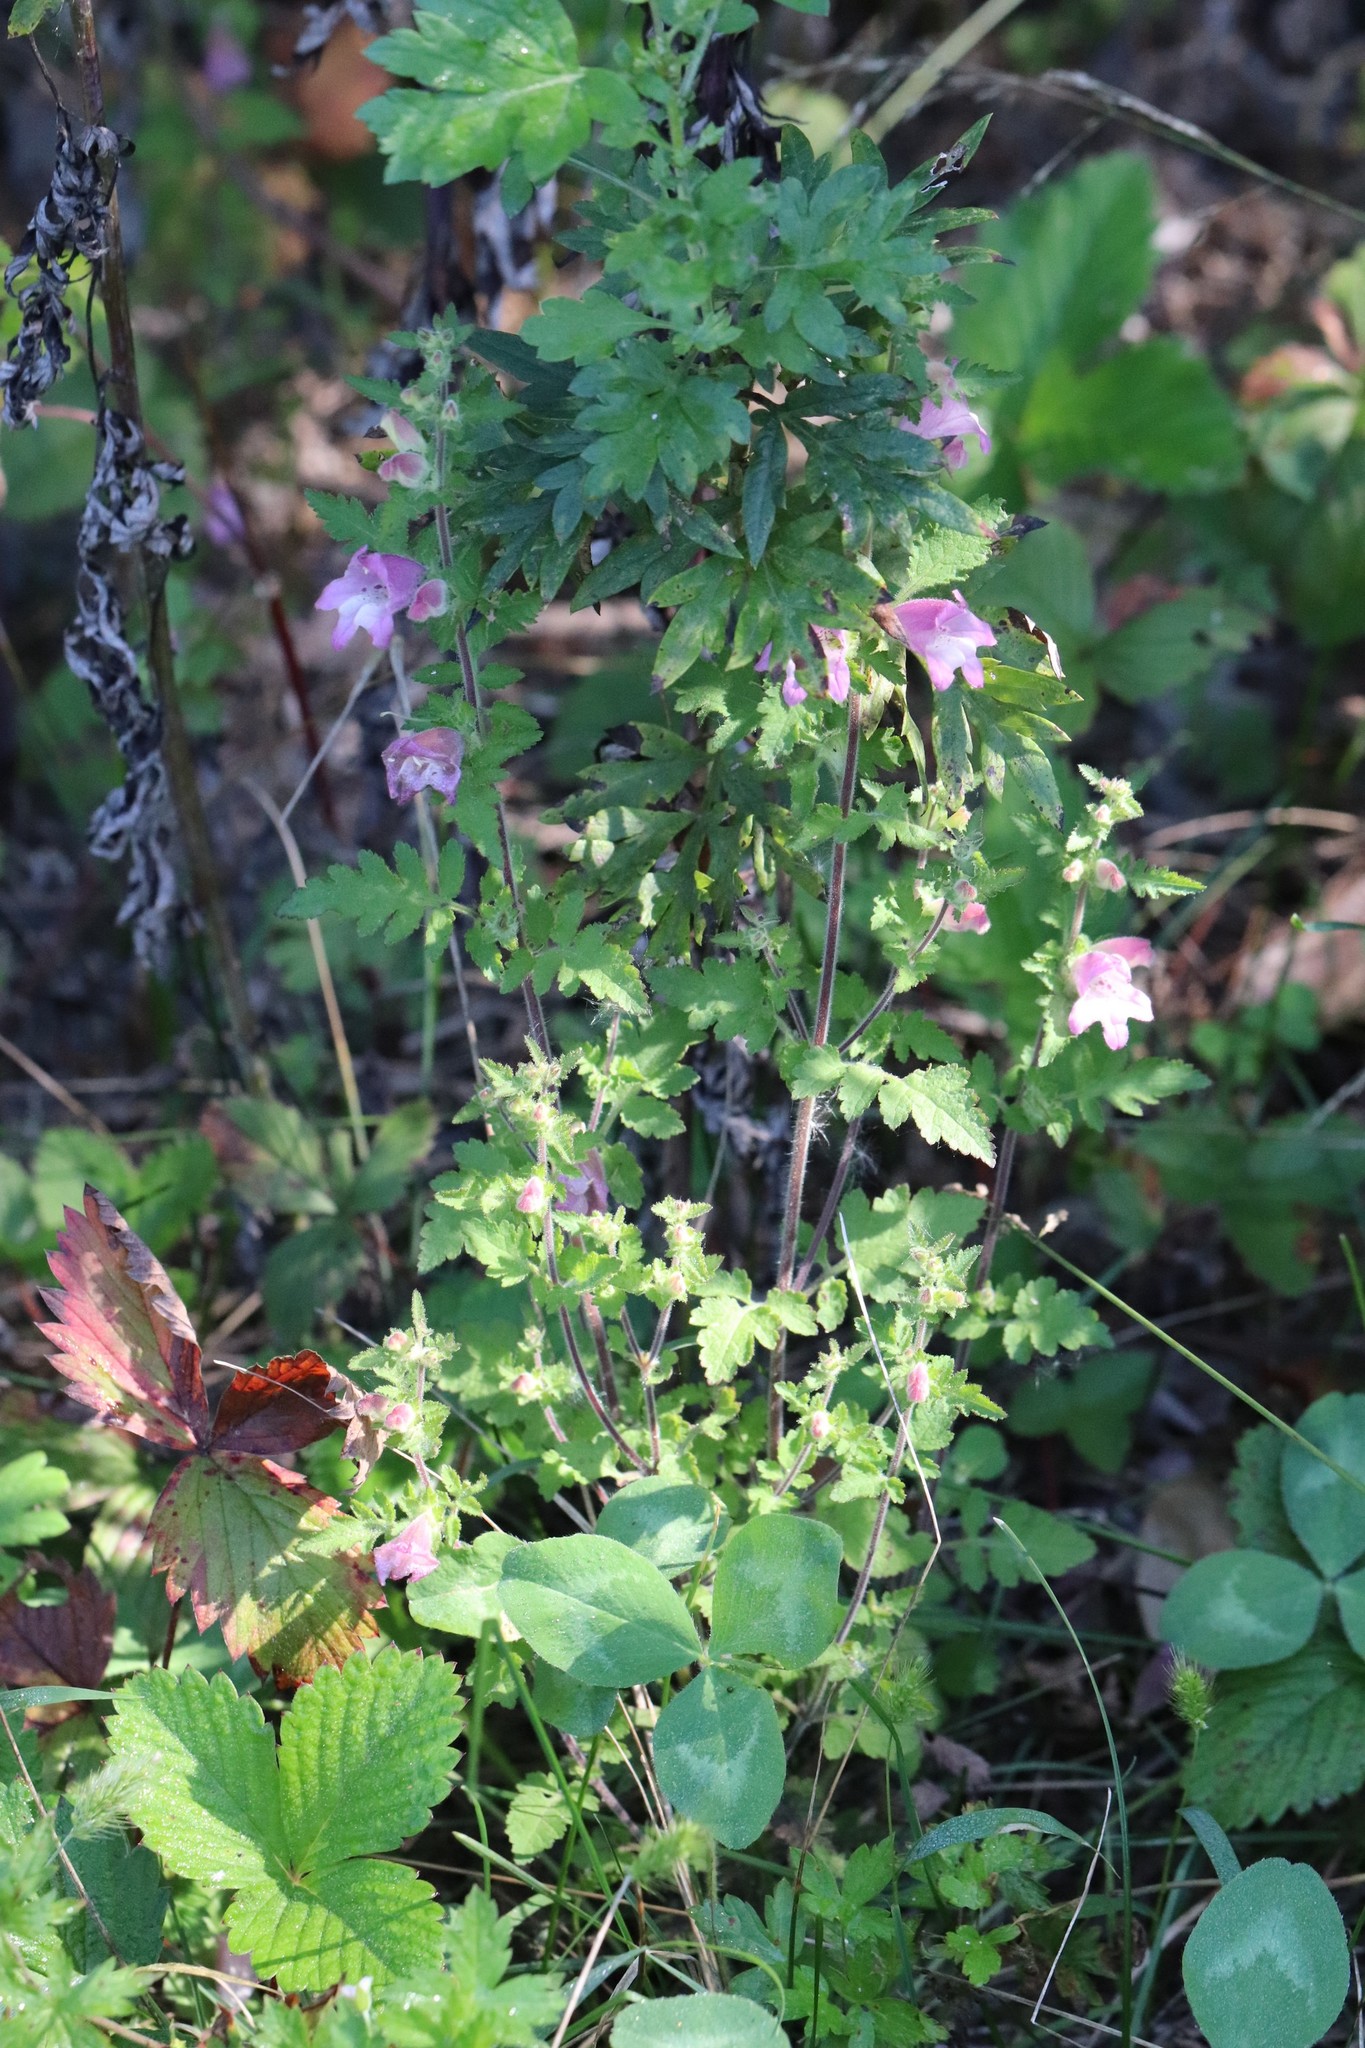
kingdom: Plantae
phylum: Tracheophyta
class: Magnoliopsida
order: Lamiales
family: Orobanchaceae
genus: Phtheirospermum
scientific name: Phtheirospermum japonicum
